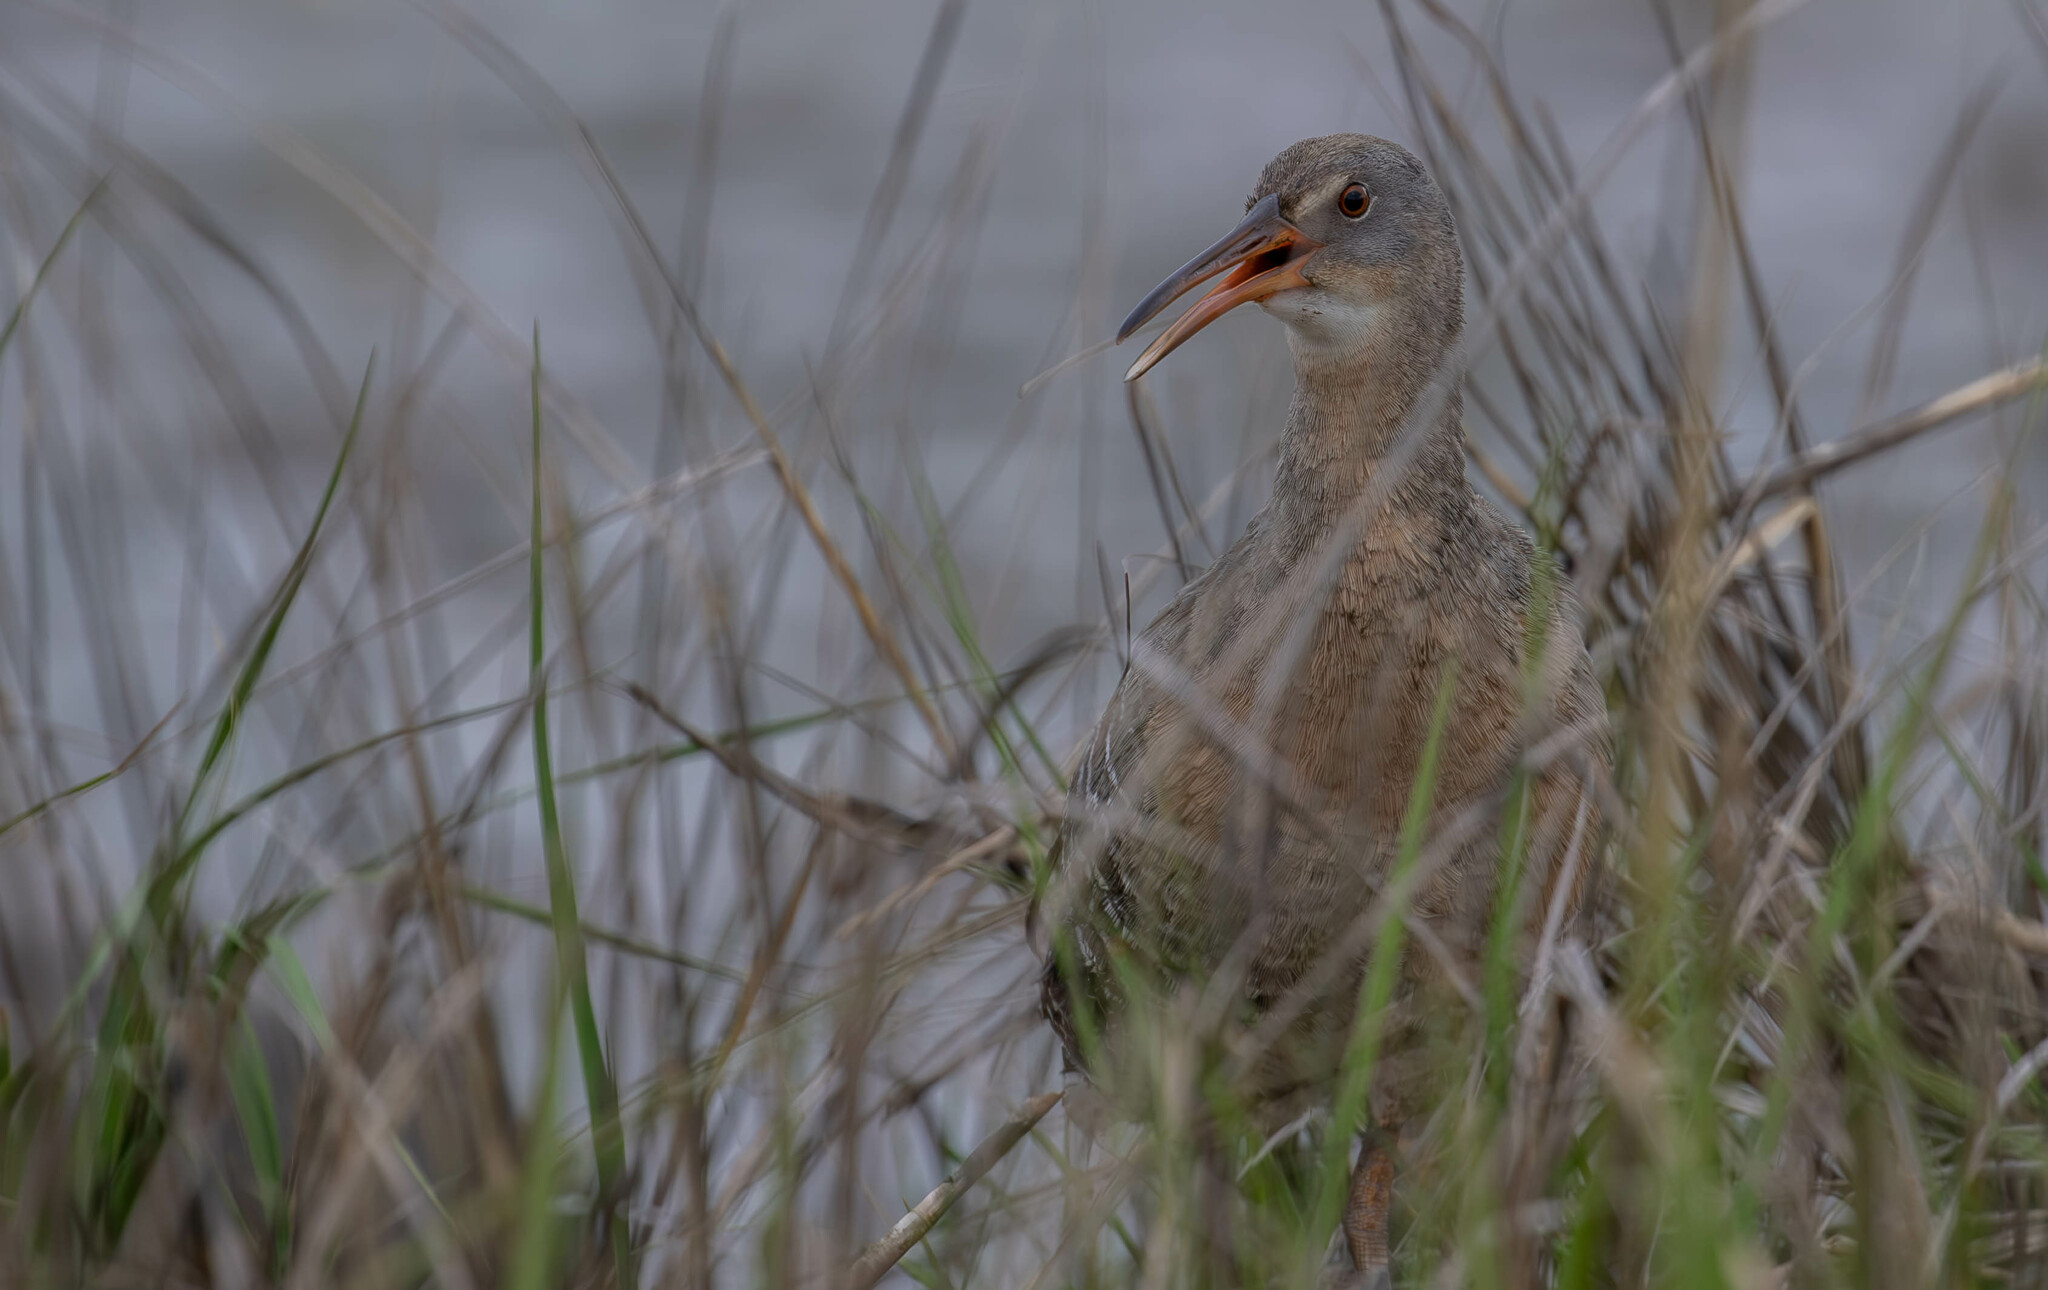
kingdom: Animalia
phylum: Chordata
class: Aves
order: Gruiformes
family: Rallidae
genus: Rallus
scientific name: Rallus crepitans
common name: Clapper rail
